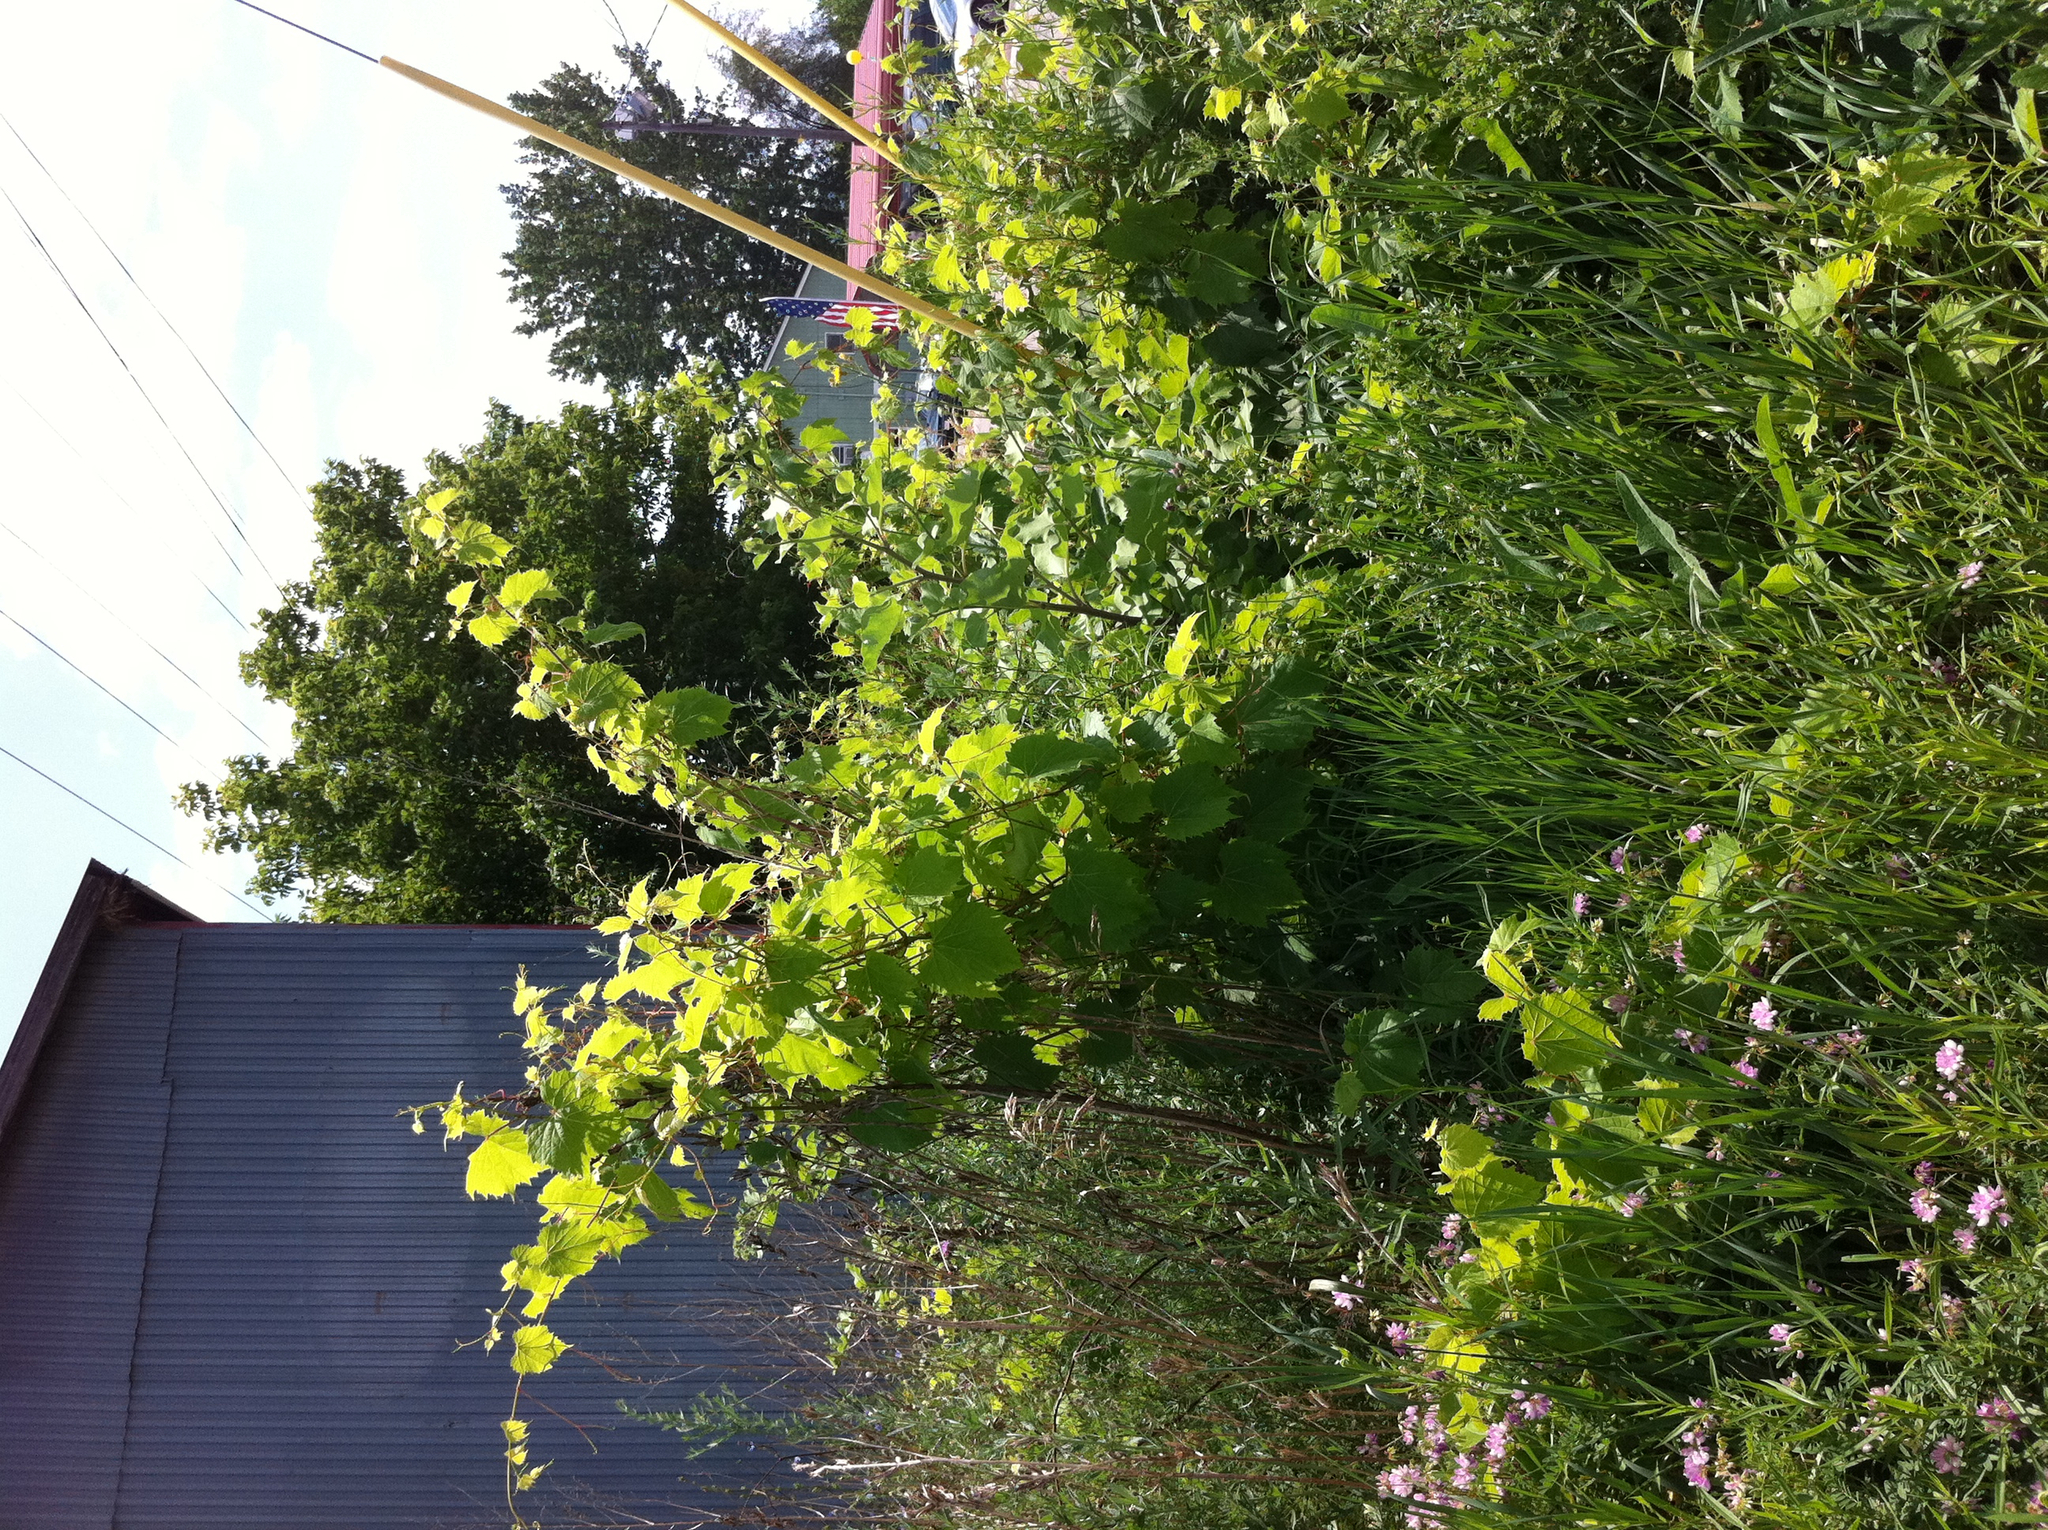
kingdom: Plantae
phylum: Tracheophyta
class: Magnoliopsida
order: Fabales
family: Fabaceae
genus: Coronilla
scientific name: Coronilla varia
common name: Crownvetch
